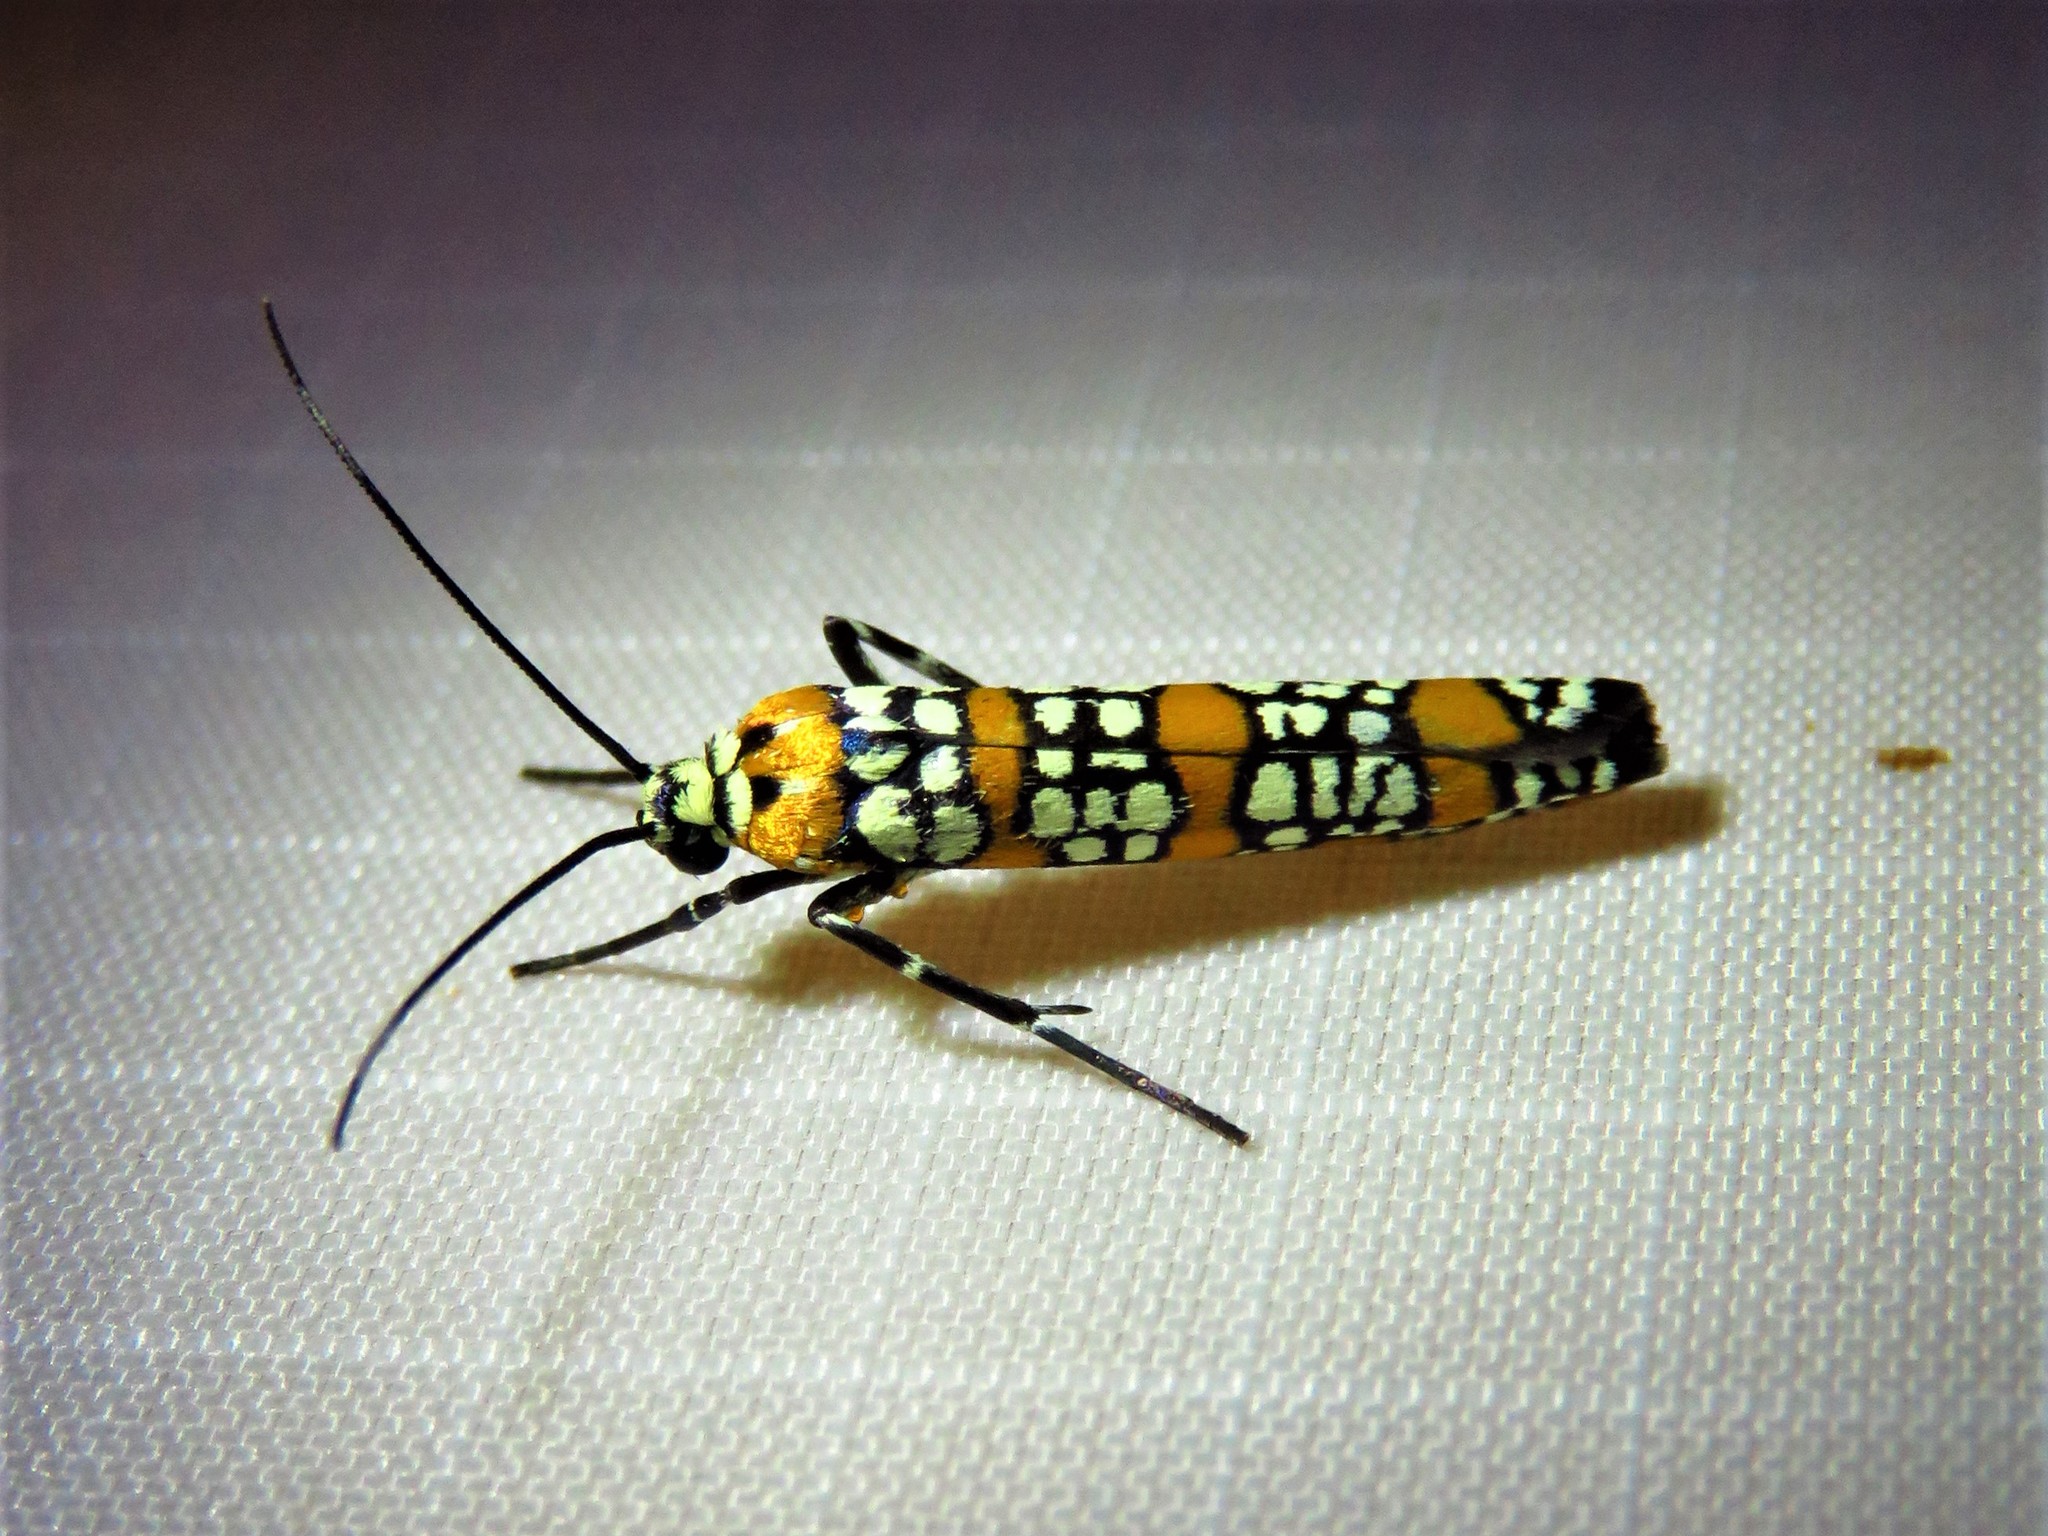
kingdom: Animalia
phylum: Arthropoda
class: Insecta
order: Lepidoptera
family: Attevidae
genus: Atteva
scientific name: Atteva punctella
